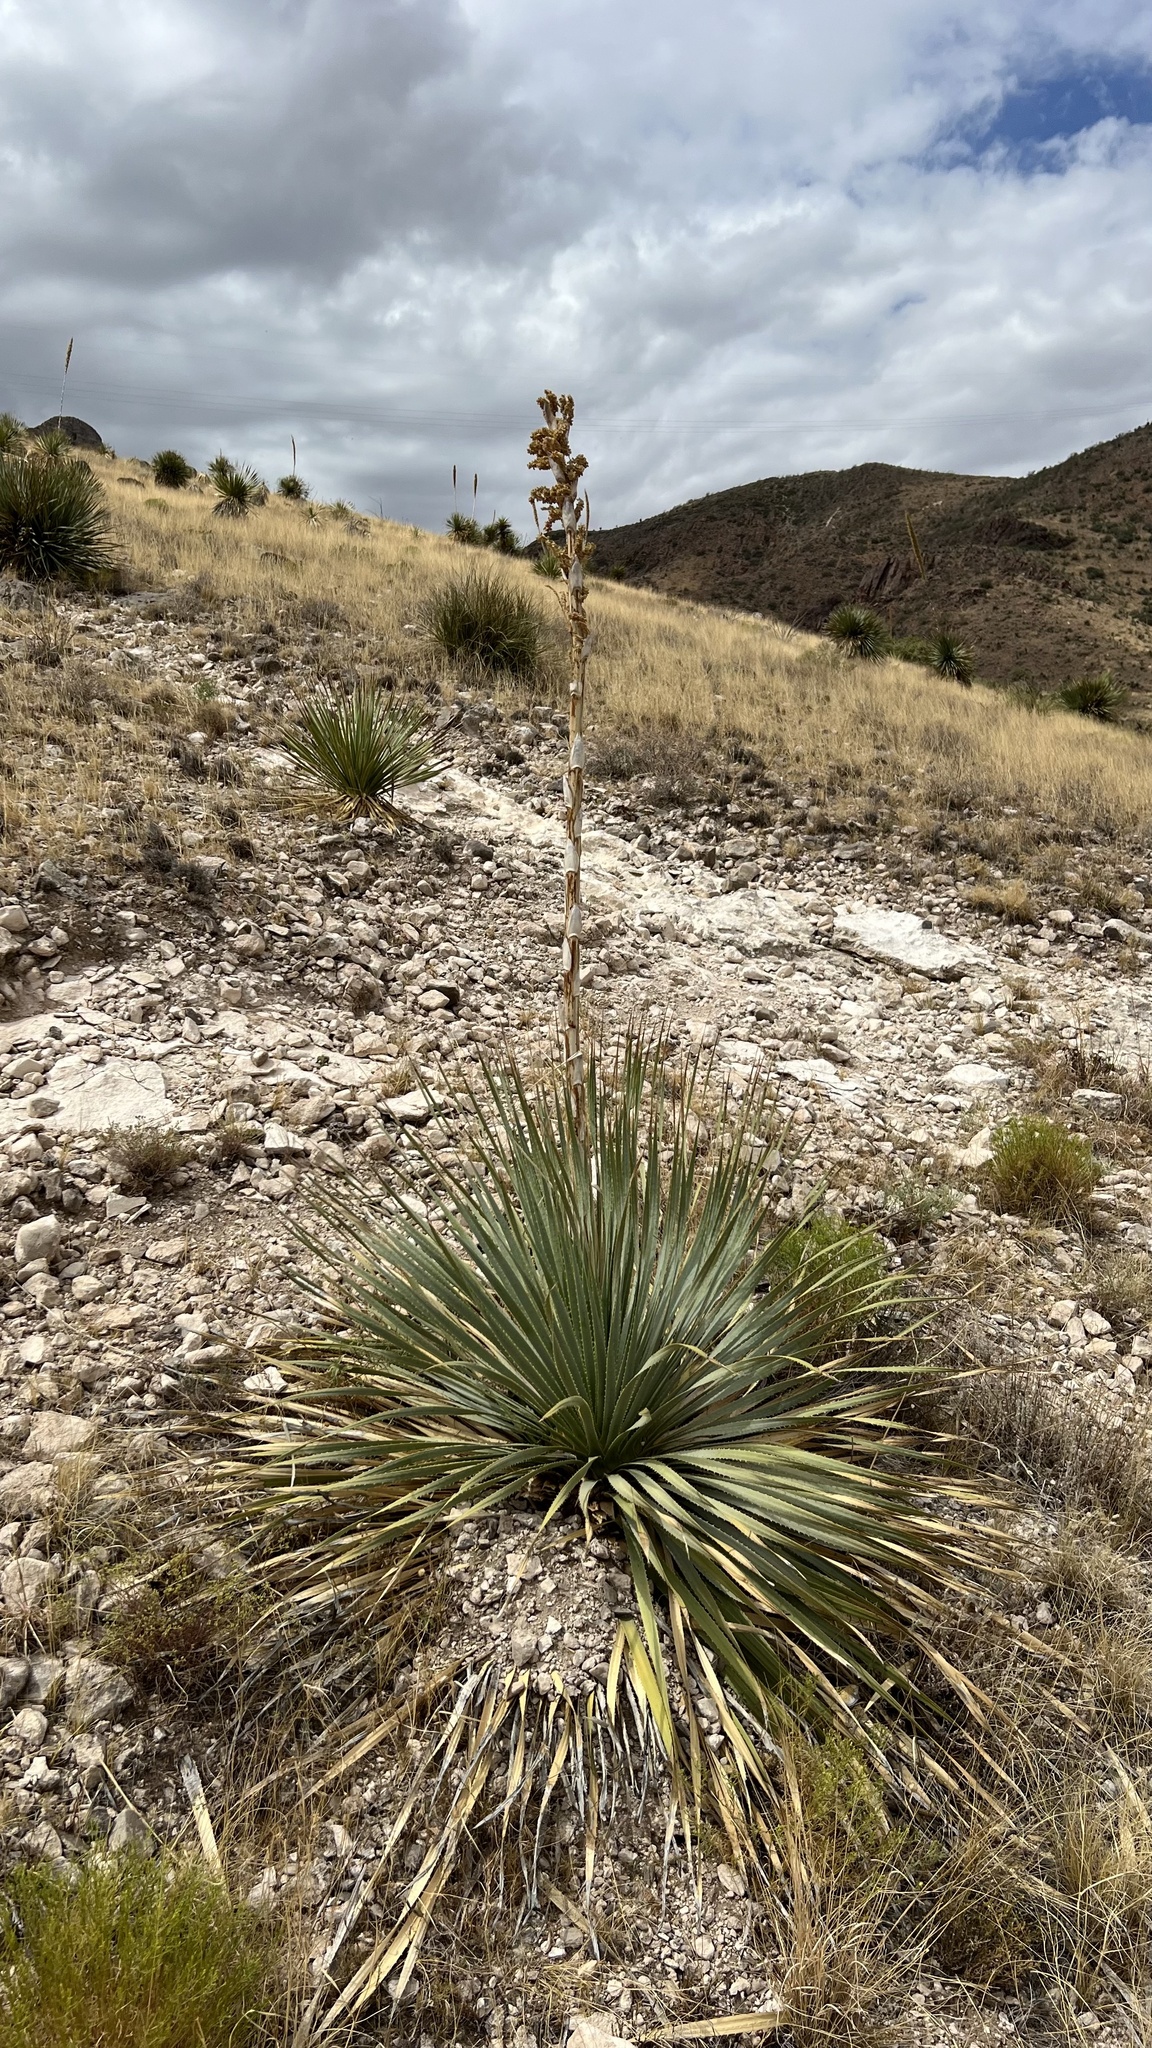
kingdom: Plantae
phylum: Tracheophyta
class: Liliopsida
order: Asparagales
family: Asparagaceae
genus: Dasylirion
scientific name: Dasylirion wheeleri
